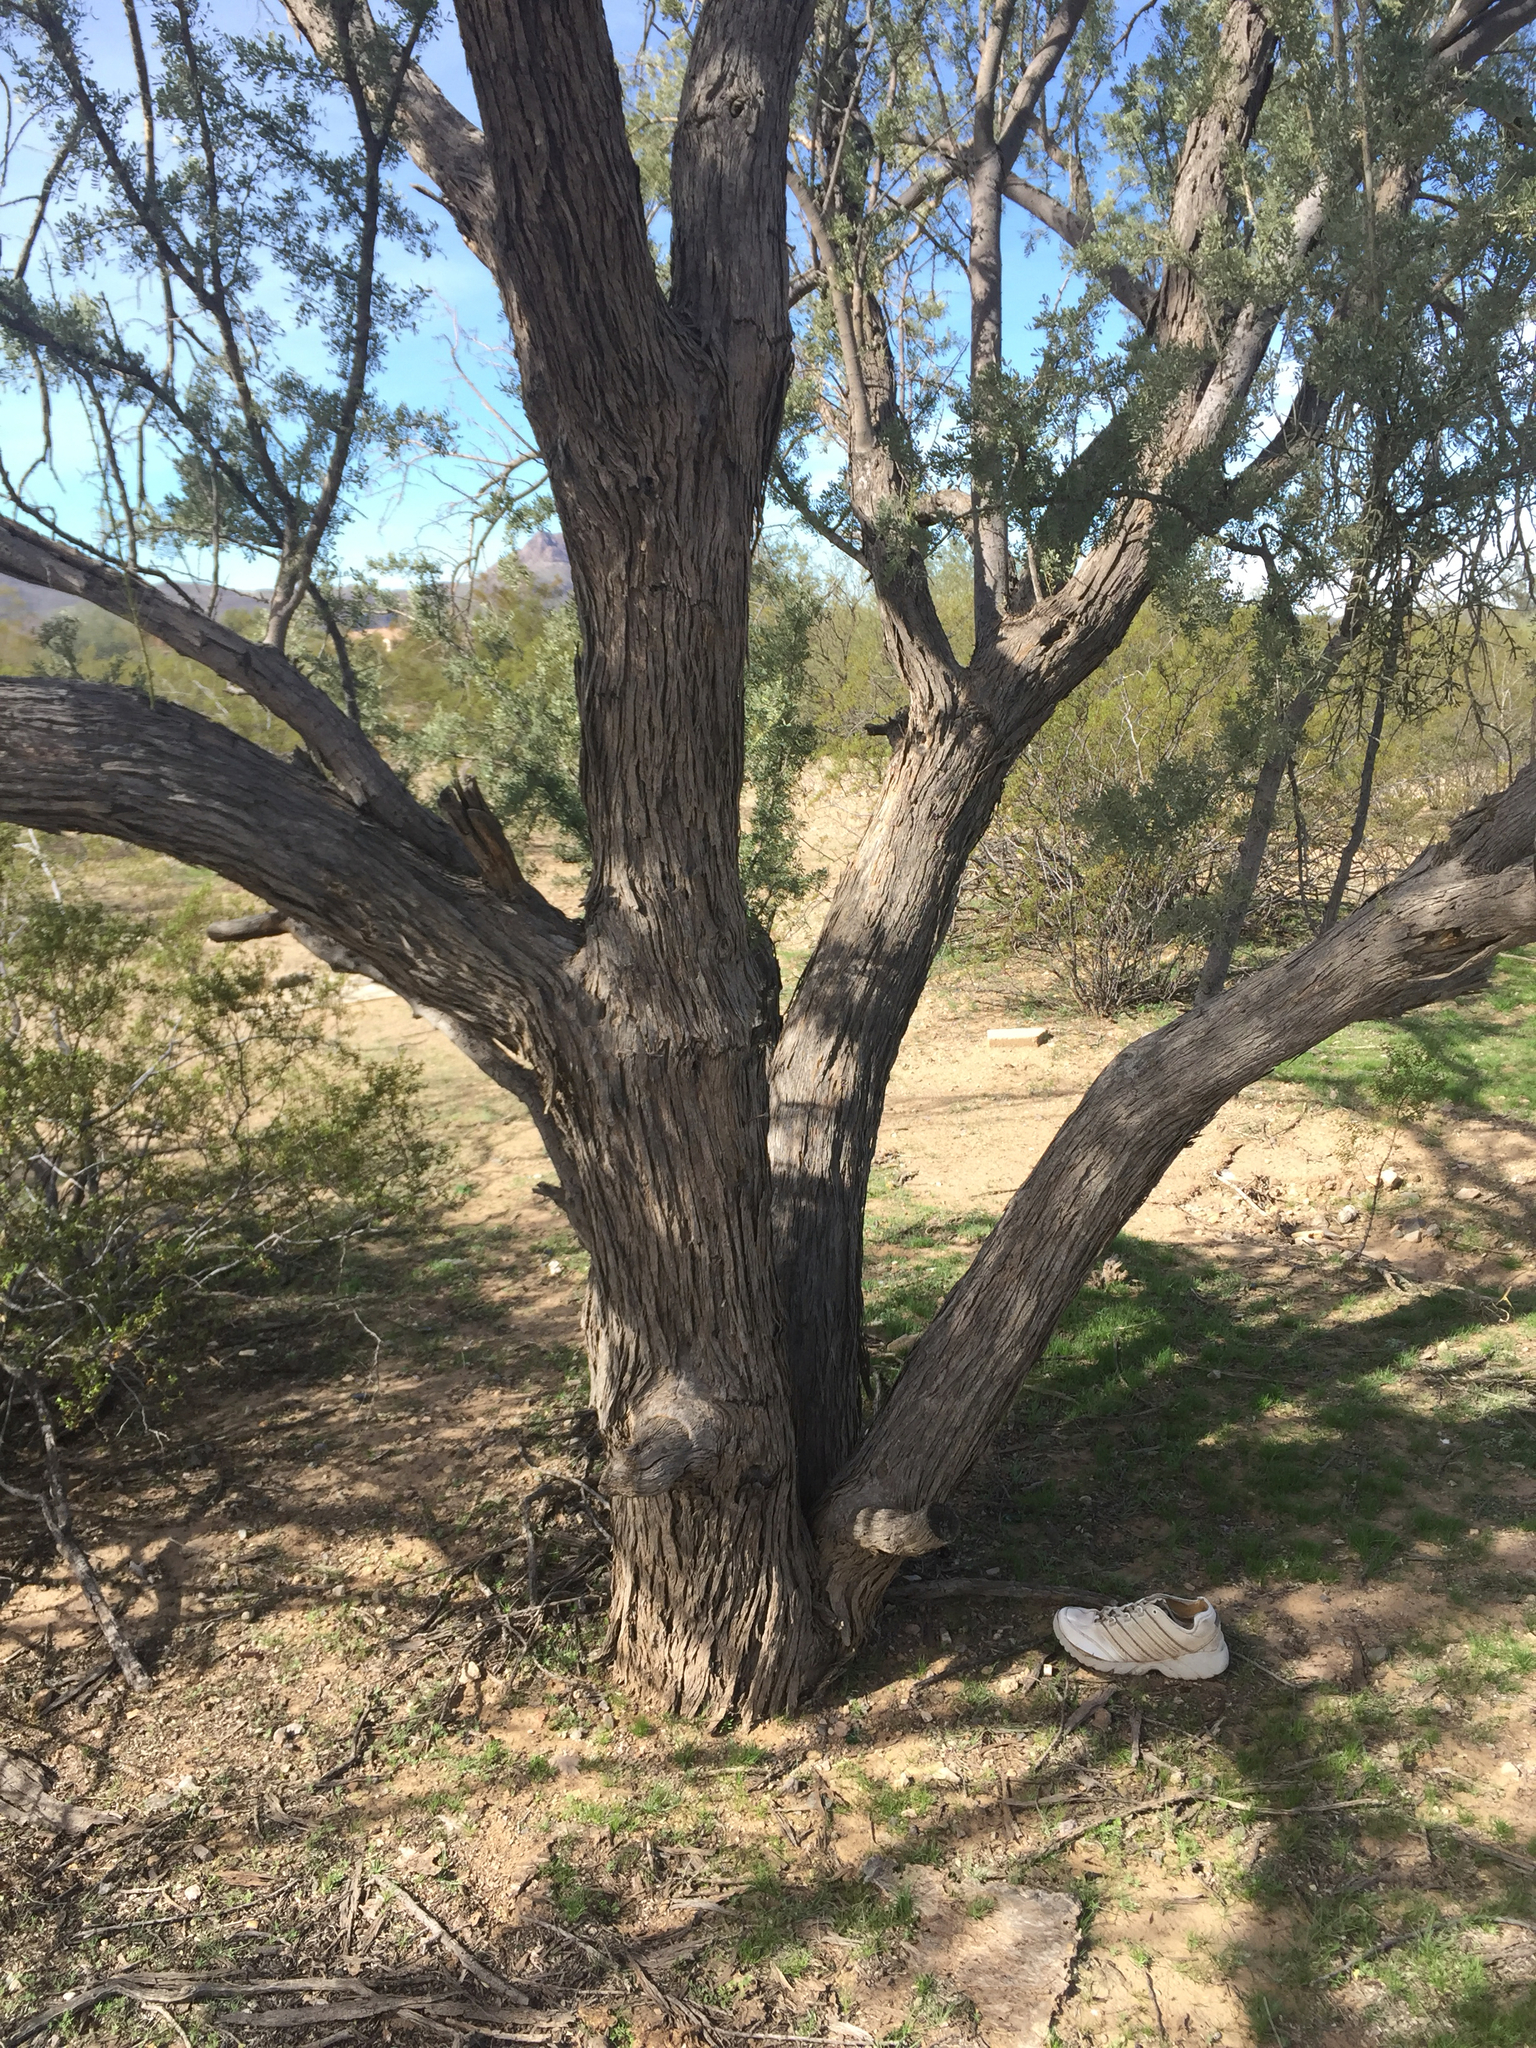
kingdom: Plantae
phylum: Tracheophyta
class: Magnoliopsida
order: Fabales
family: Fabaceae
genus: Olneya
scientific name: Olneya tesota
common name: Desert ironwood
